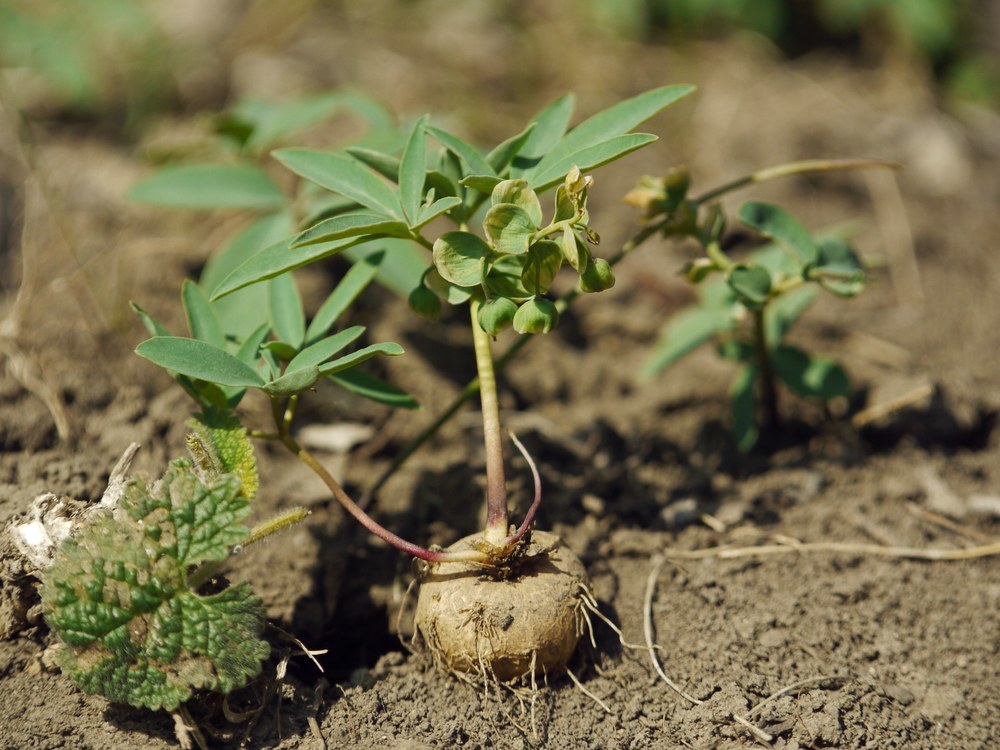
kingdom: Plantae
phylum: Tracheophyta
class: Magnoliopsida
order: Ranunculales
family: Berberidaceae
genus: Gymnospermium
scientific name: Gymnospermium odessanum
